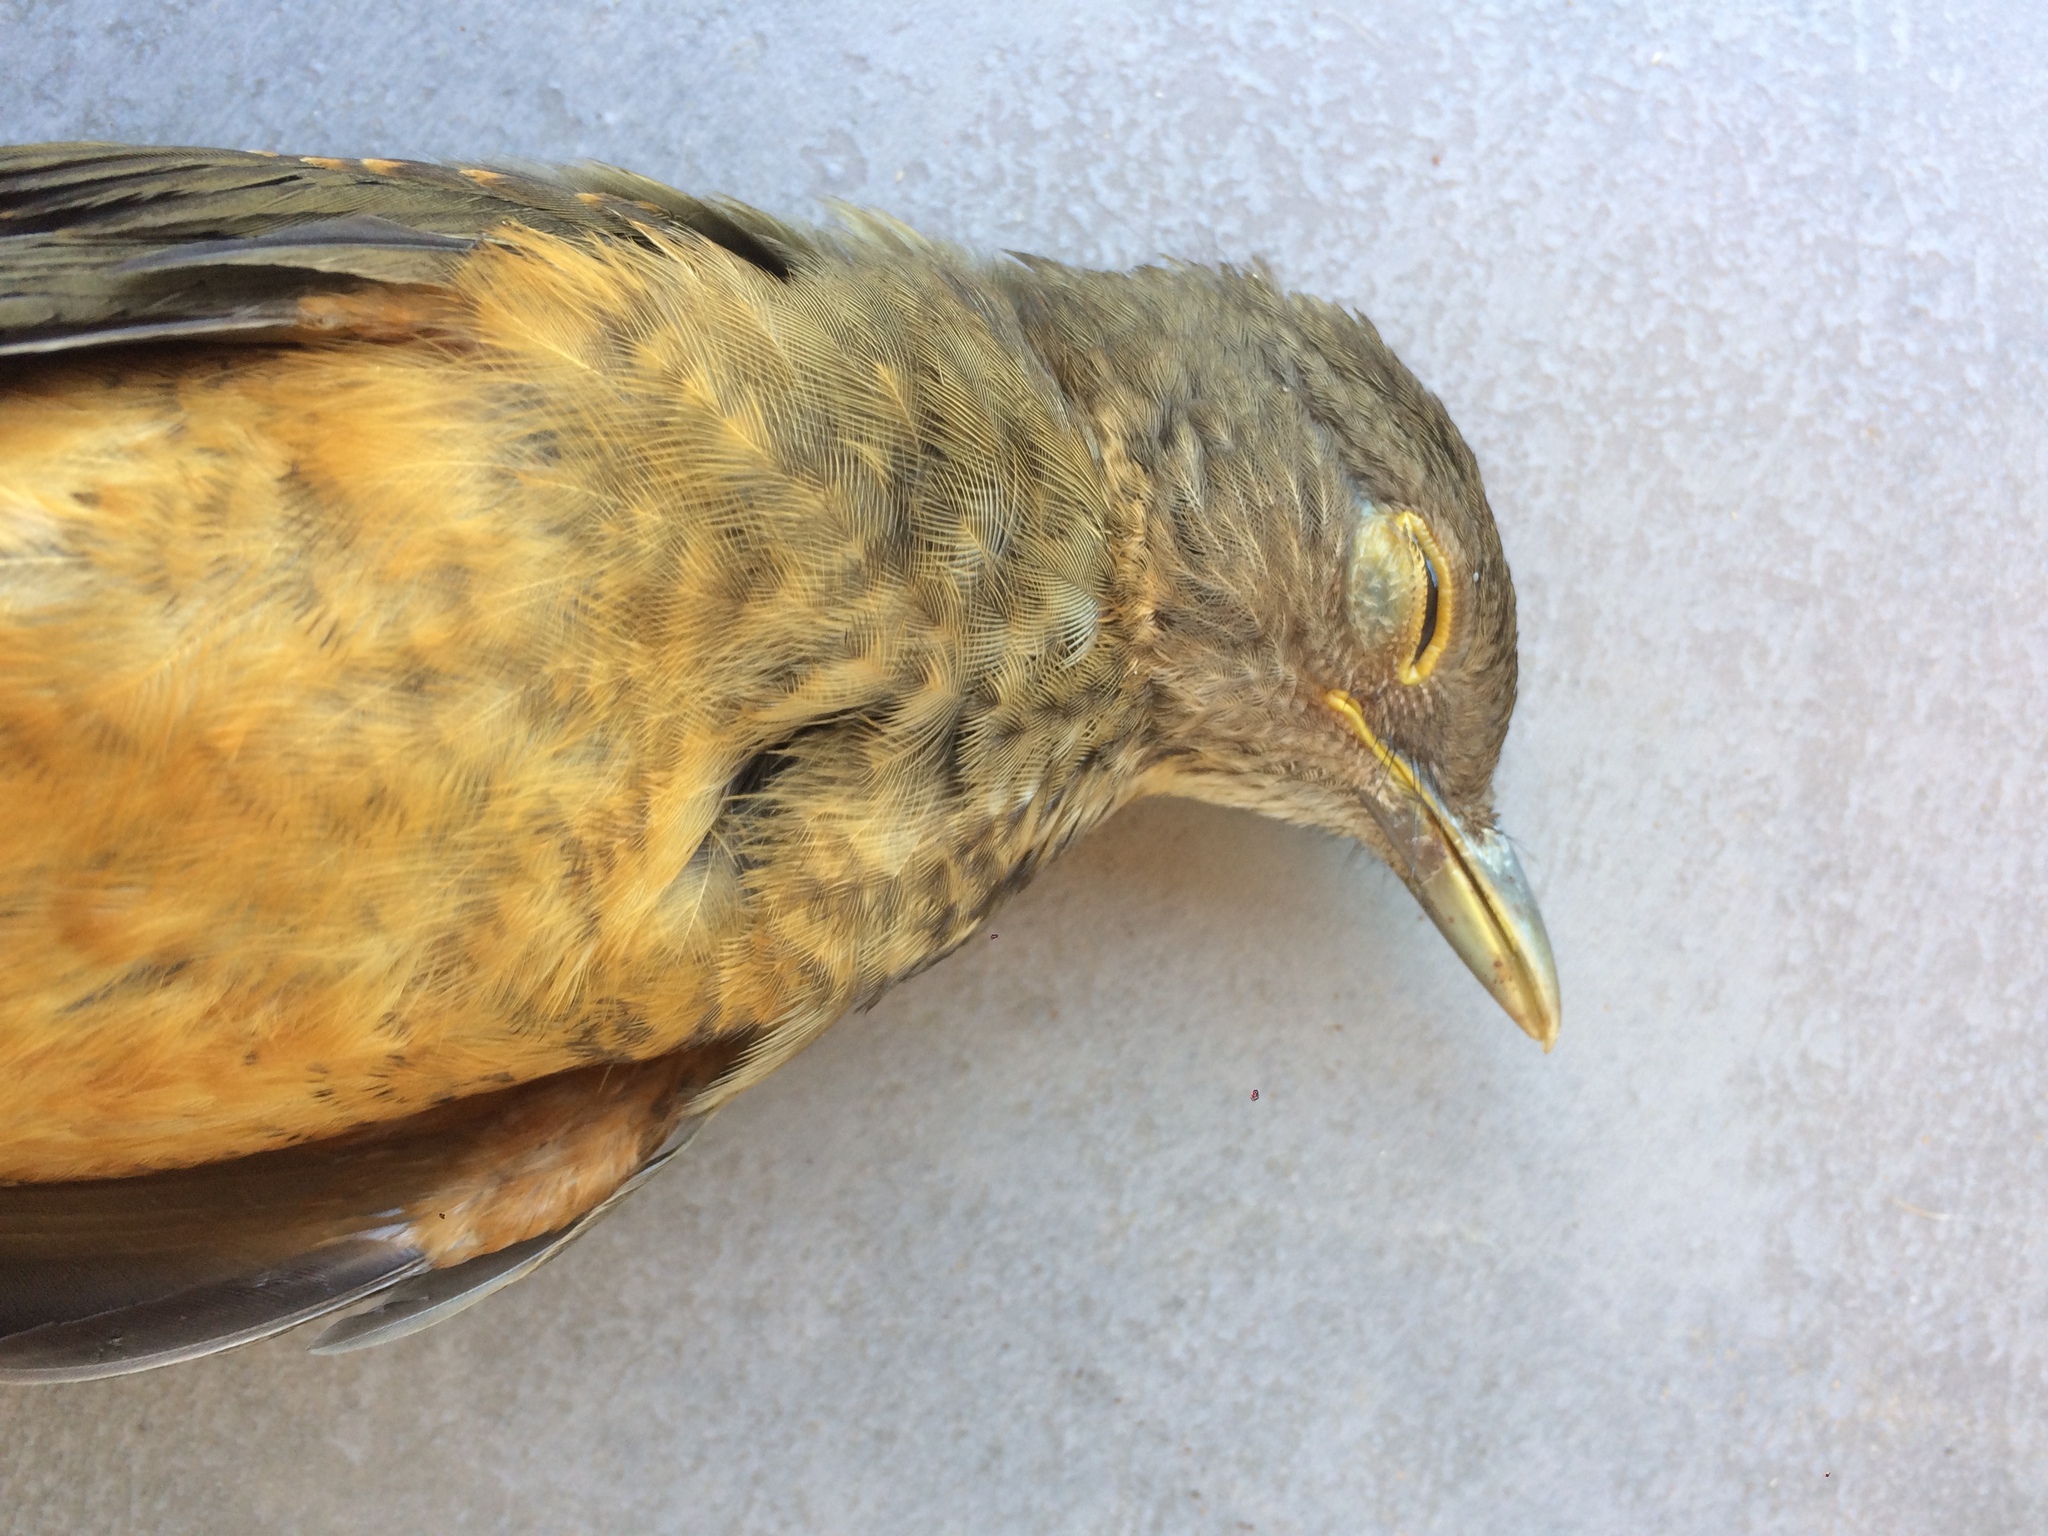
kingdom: Animalia
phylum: Chordata
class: Aves
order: Passeriformes
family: Turdidae
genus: Turdus
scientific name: Turdus rufiventris
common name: Rufous-bellied thrush
